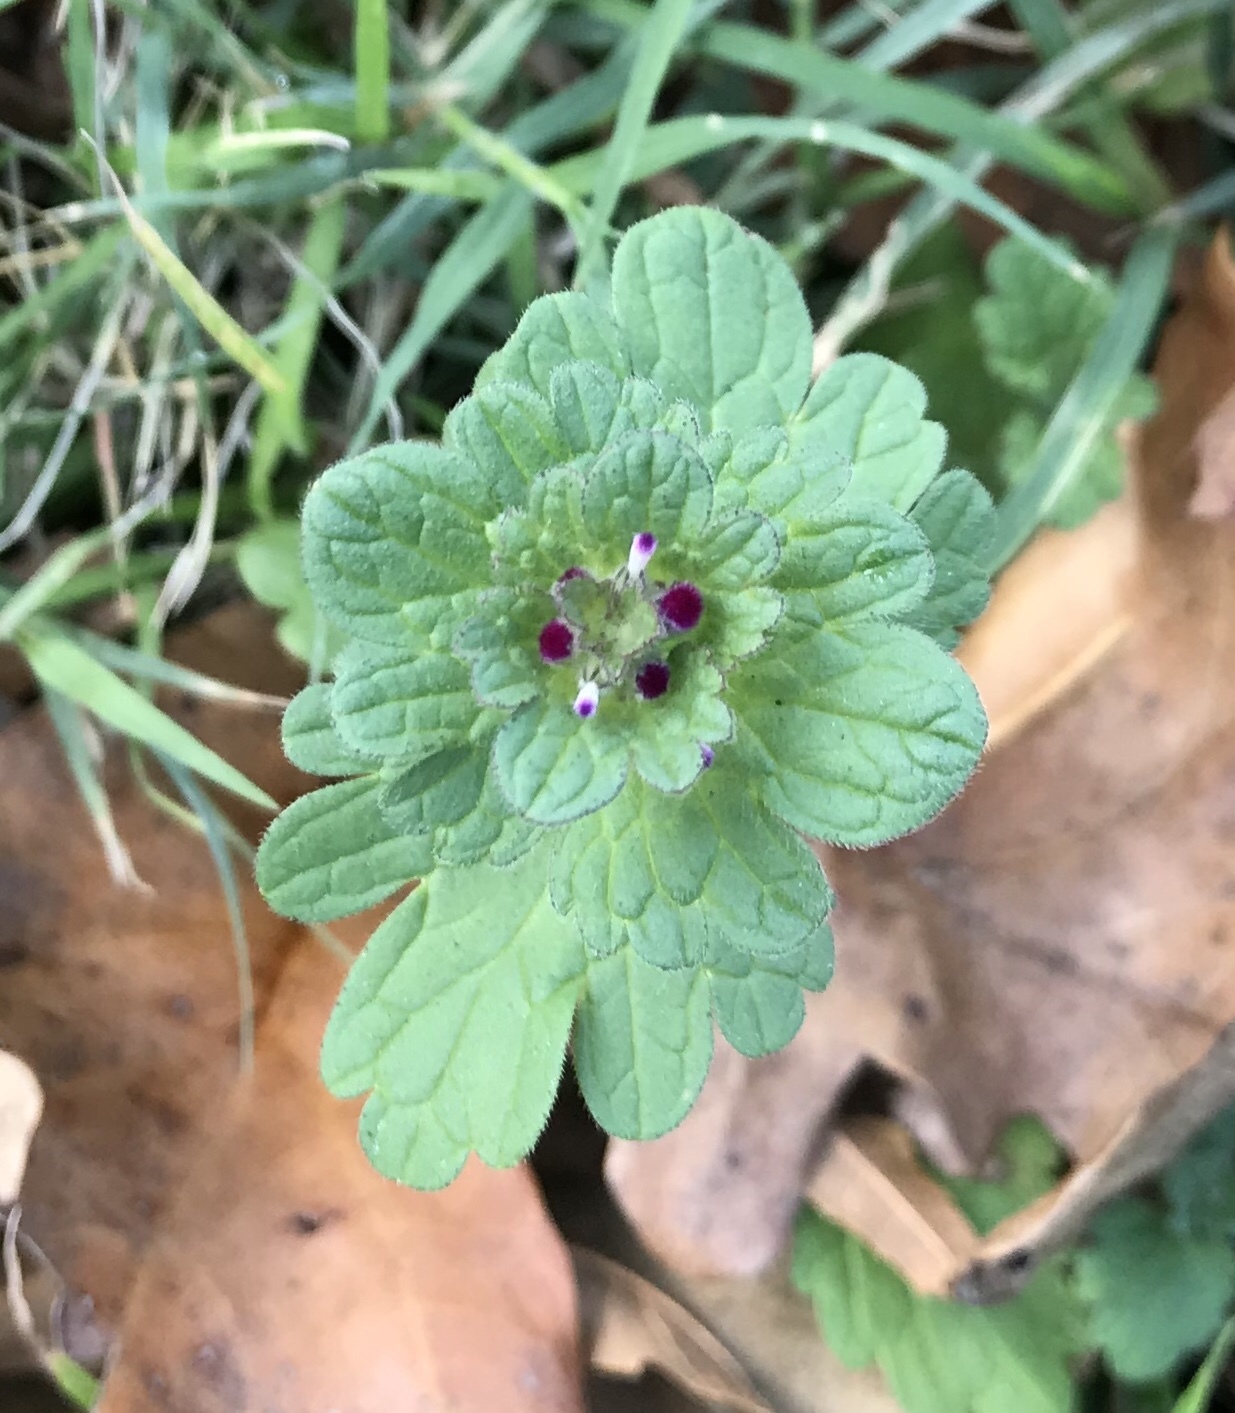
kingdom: Plantae
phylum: Tracheophyta
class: Magnoliopsida
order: Lamiales
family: Lamiaceae
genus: Lamium
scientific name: Lamium amplexicaule
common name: Henbit dead-nettle
